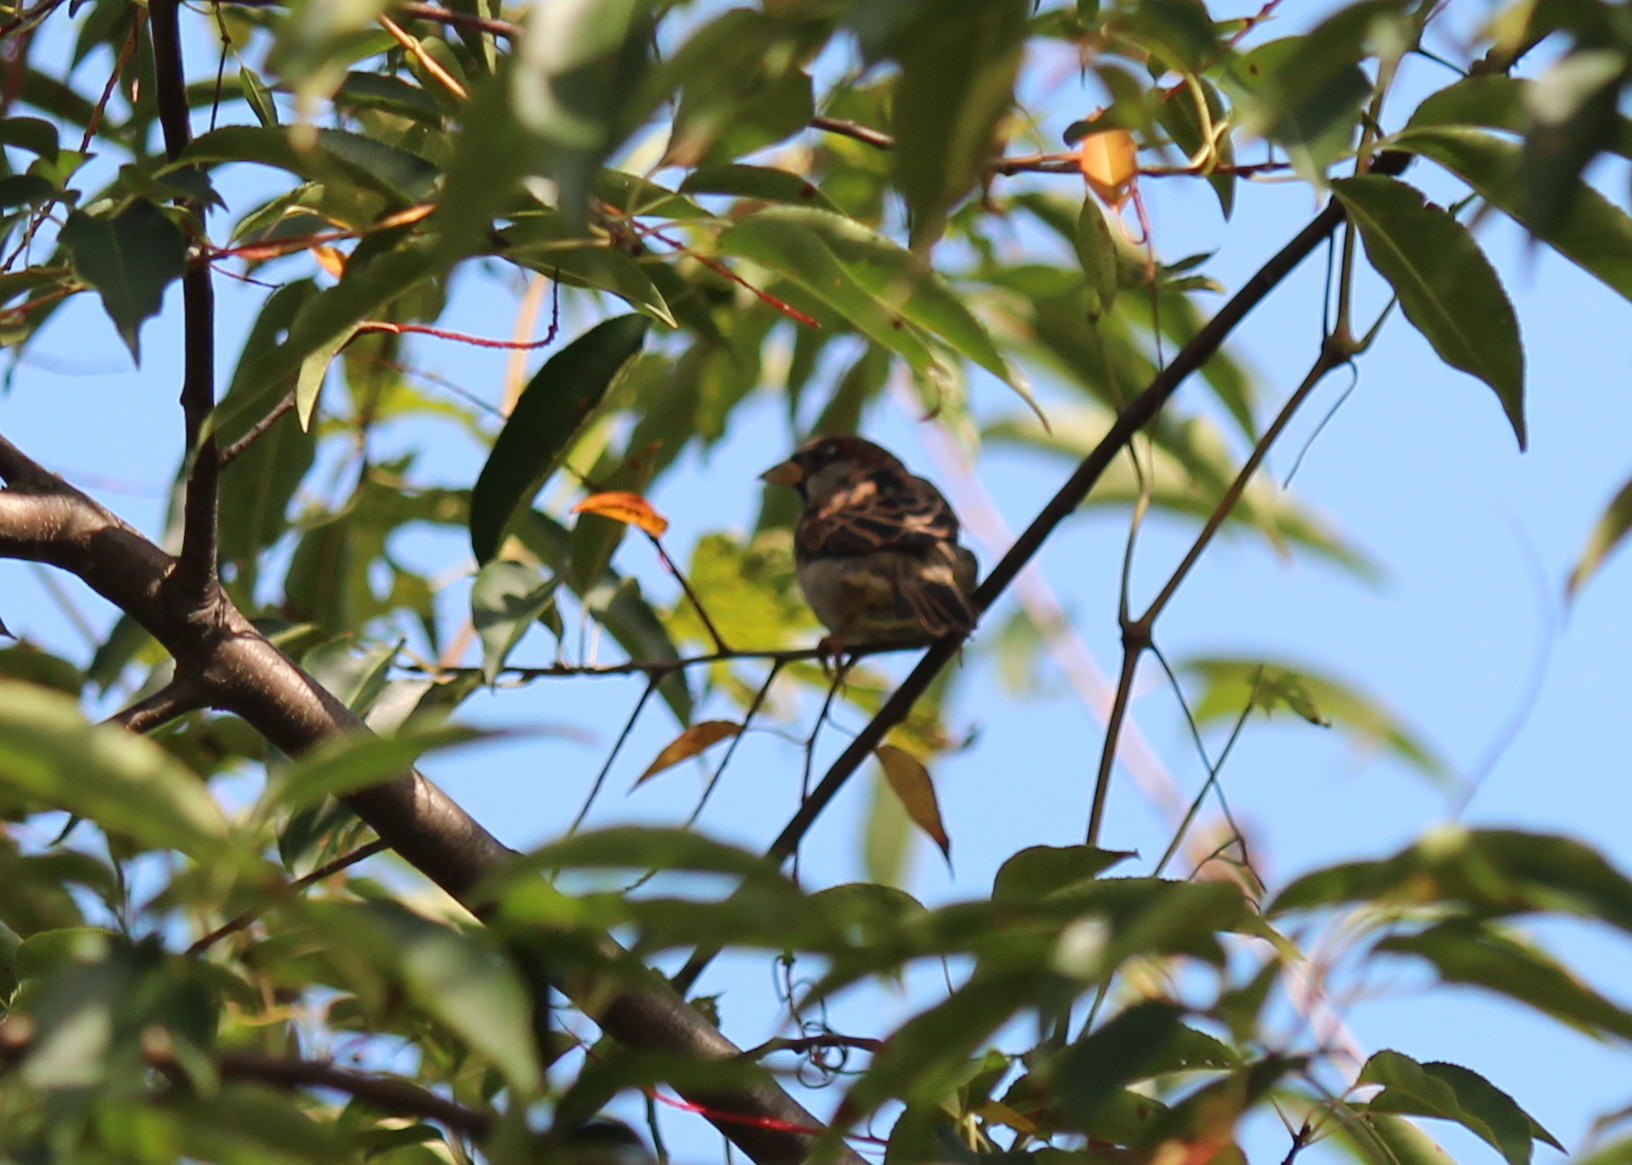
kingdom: Animalia
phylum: Chordata
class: Aves
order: Passeriformes
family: Passeridae
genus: Passer
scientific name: Passer domesticus
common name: House sparrow
